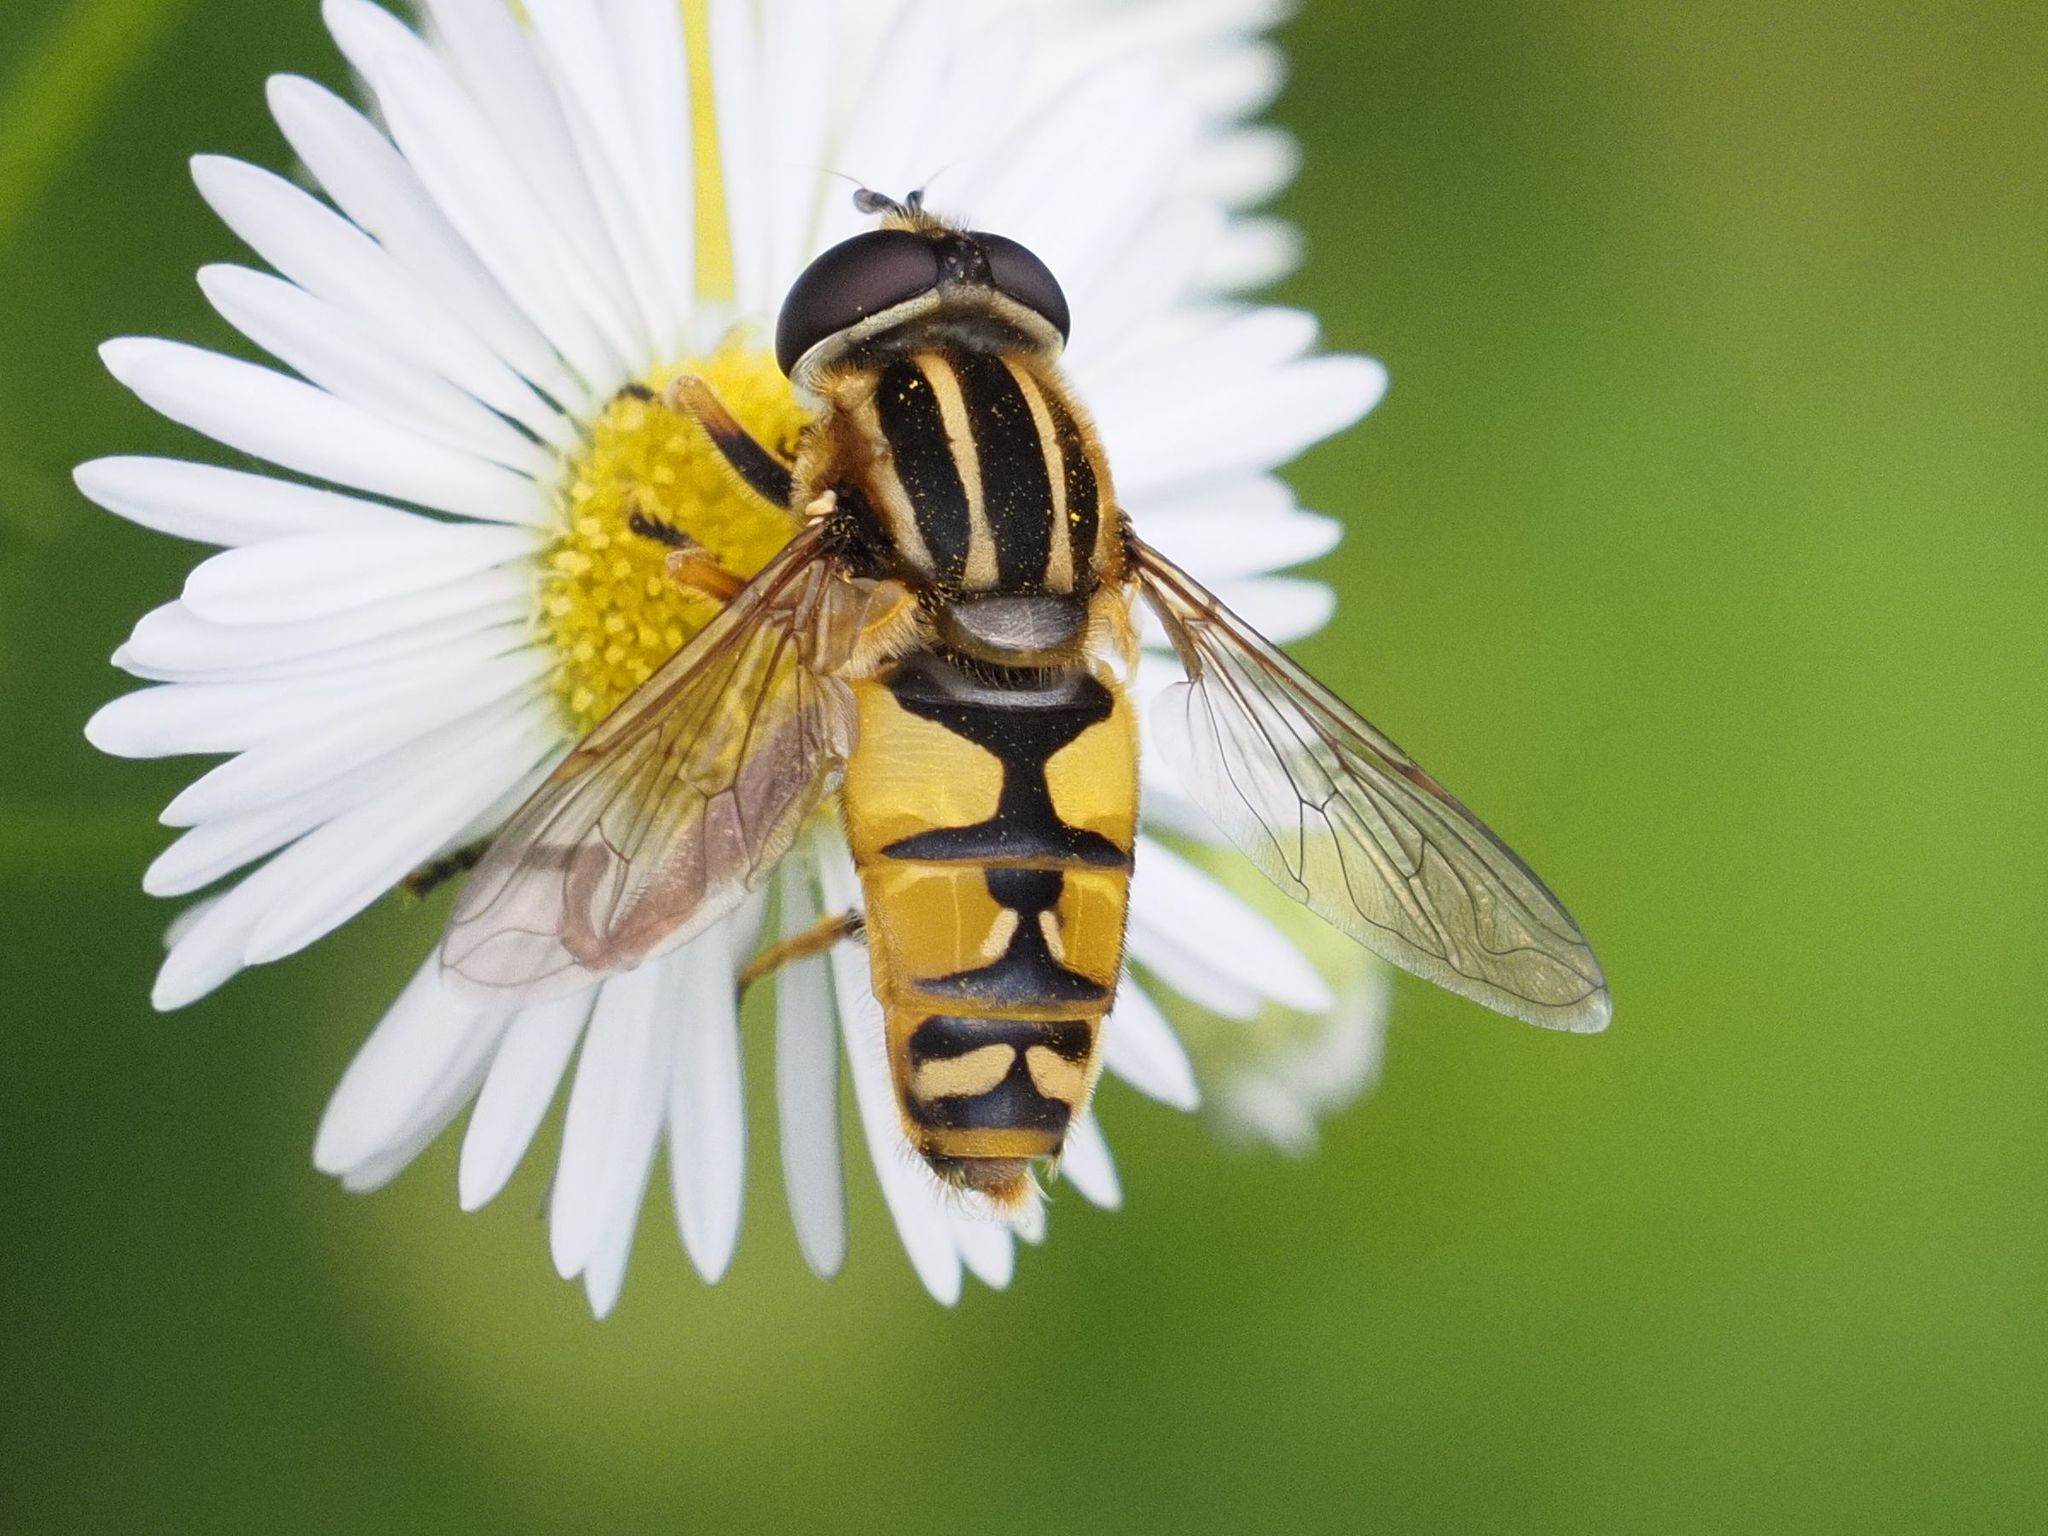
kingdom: Animalia
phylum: Arthropoda
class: Insecta
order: Diptera
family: Syrphidae
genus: Helophilus
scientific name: Helophilus pendulus
